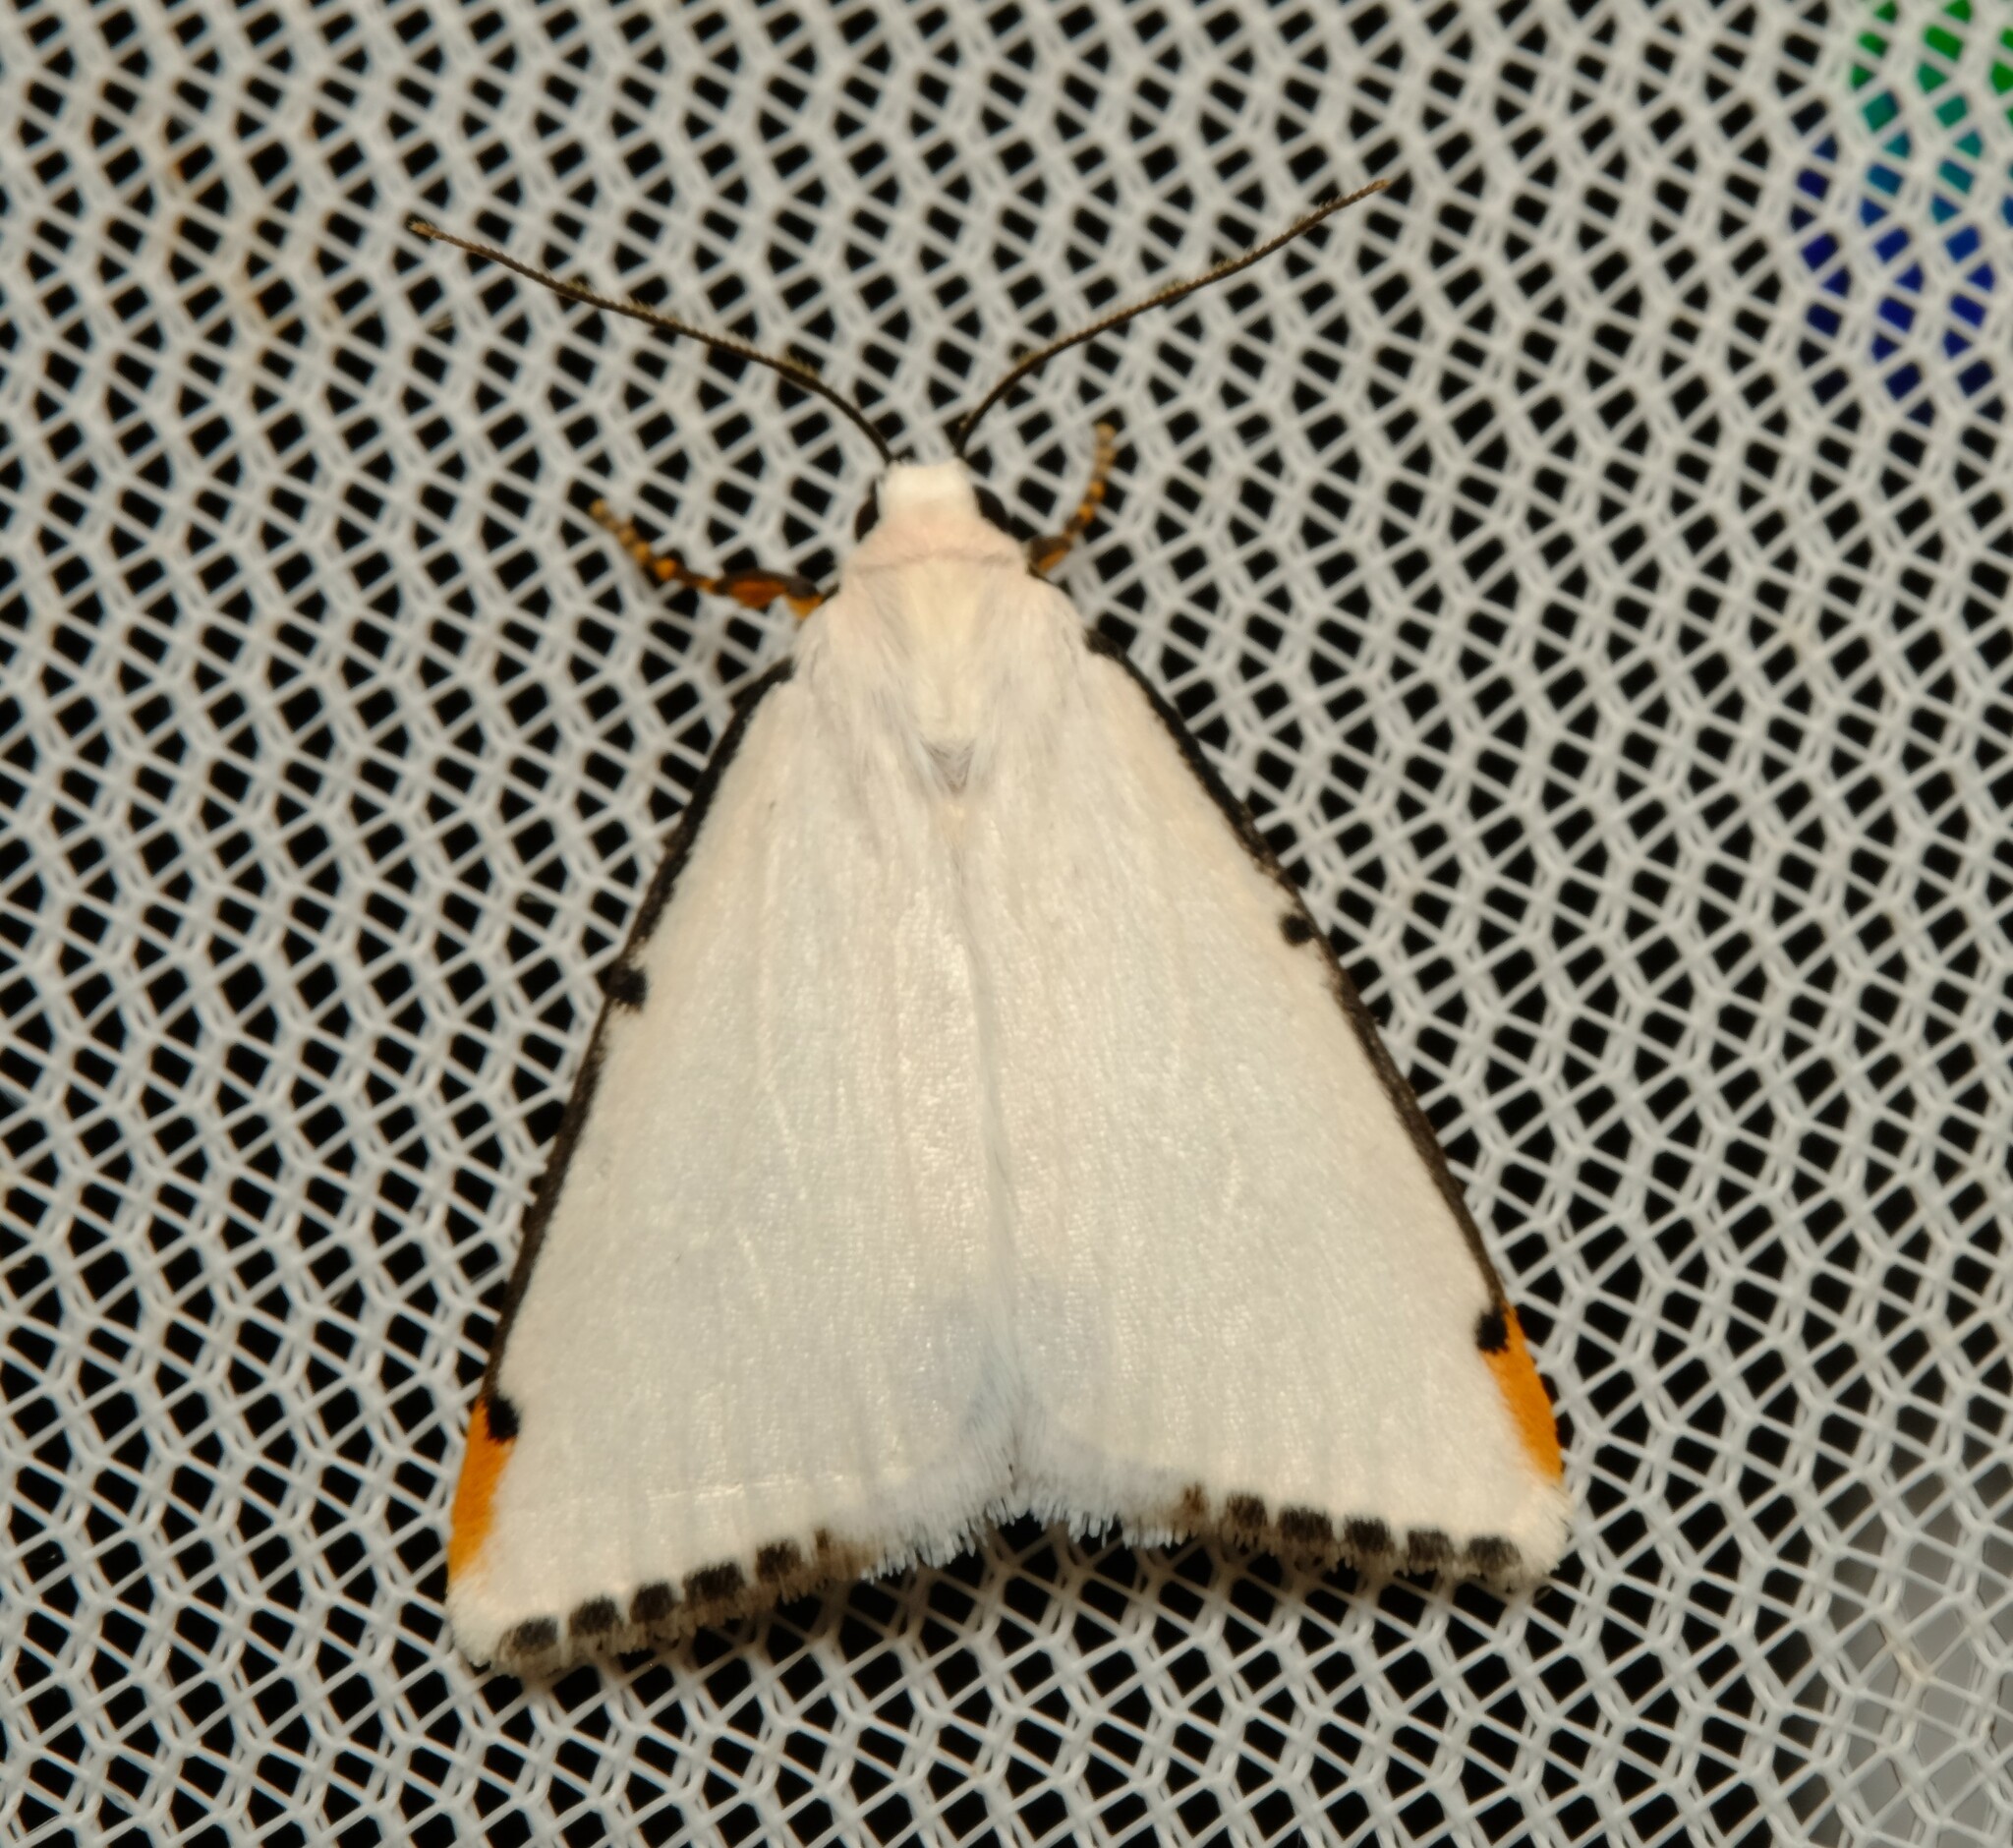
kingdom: Animalia
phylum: Arthropoda
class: Insecta
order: Lepidoptera
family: Erebidae
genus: Termessa
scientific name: Termessa nivosa
